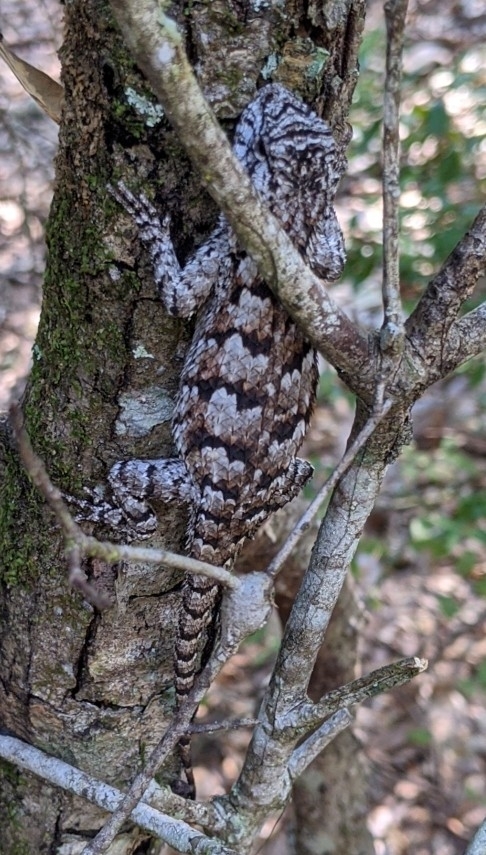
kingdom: Animalia
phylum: Chordata
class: Squamata
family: Phrynosomatidae
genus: Sceloporus
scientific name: Sceloporus undulatus
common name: Eastern fence lizard
